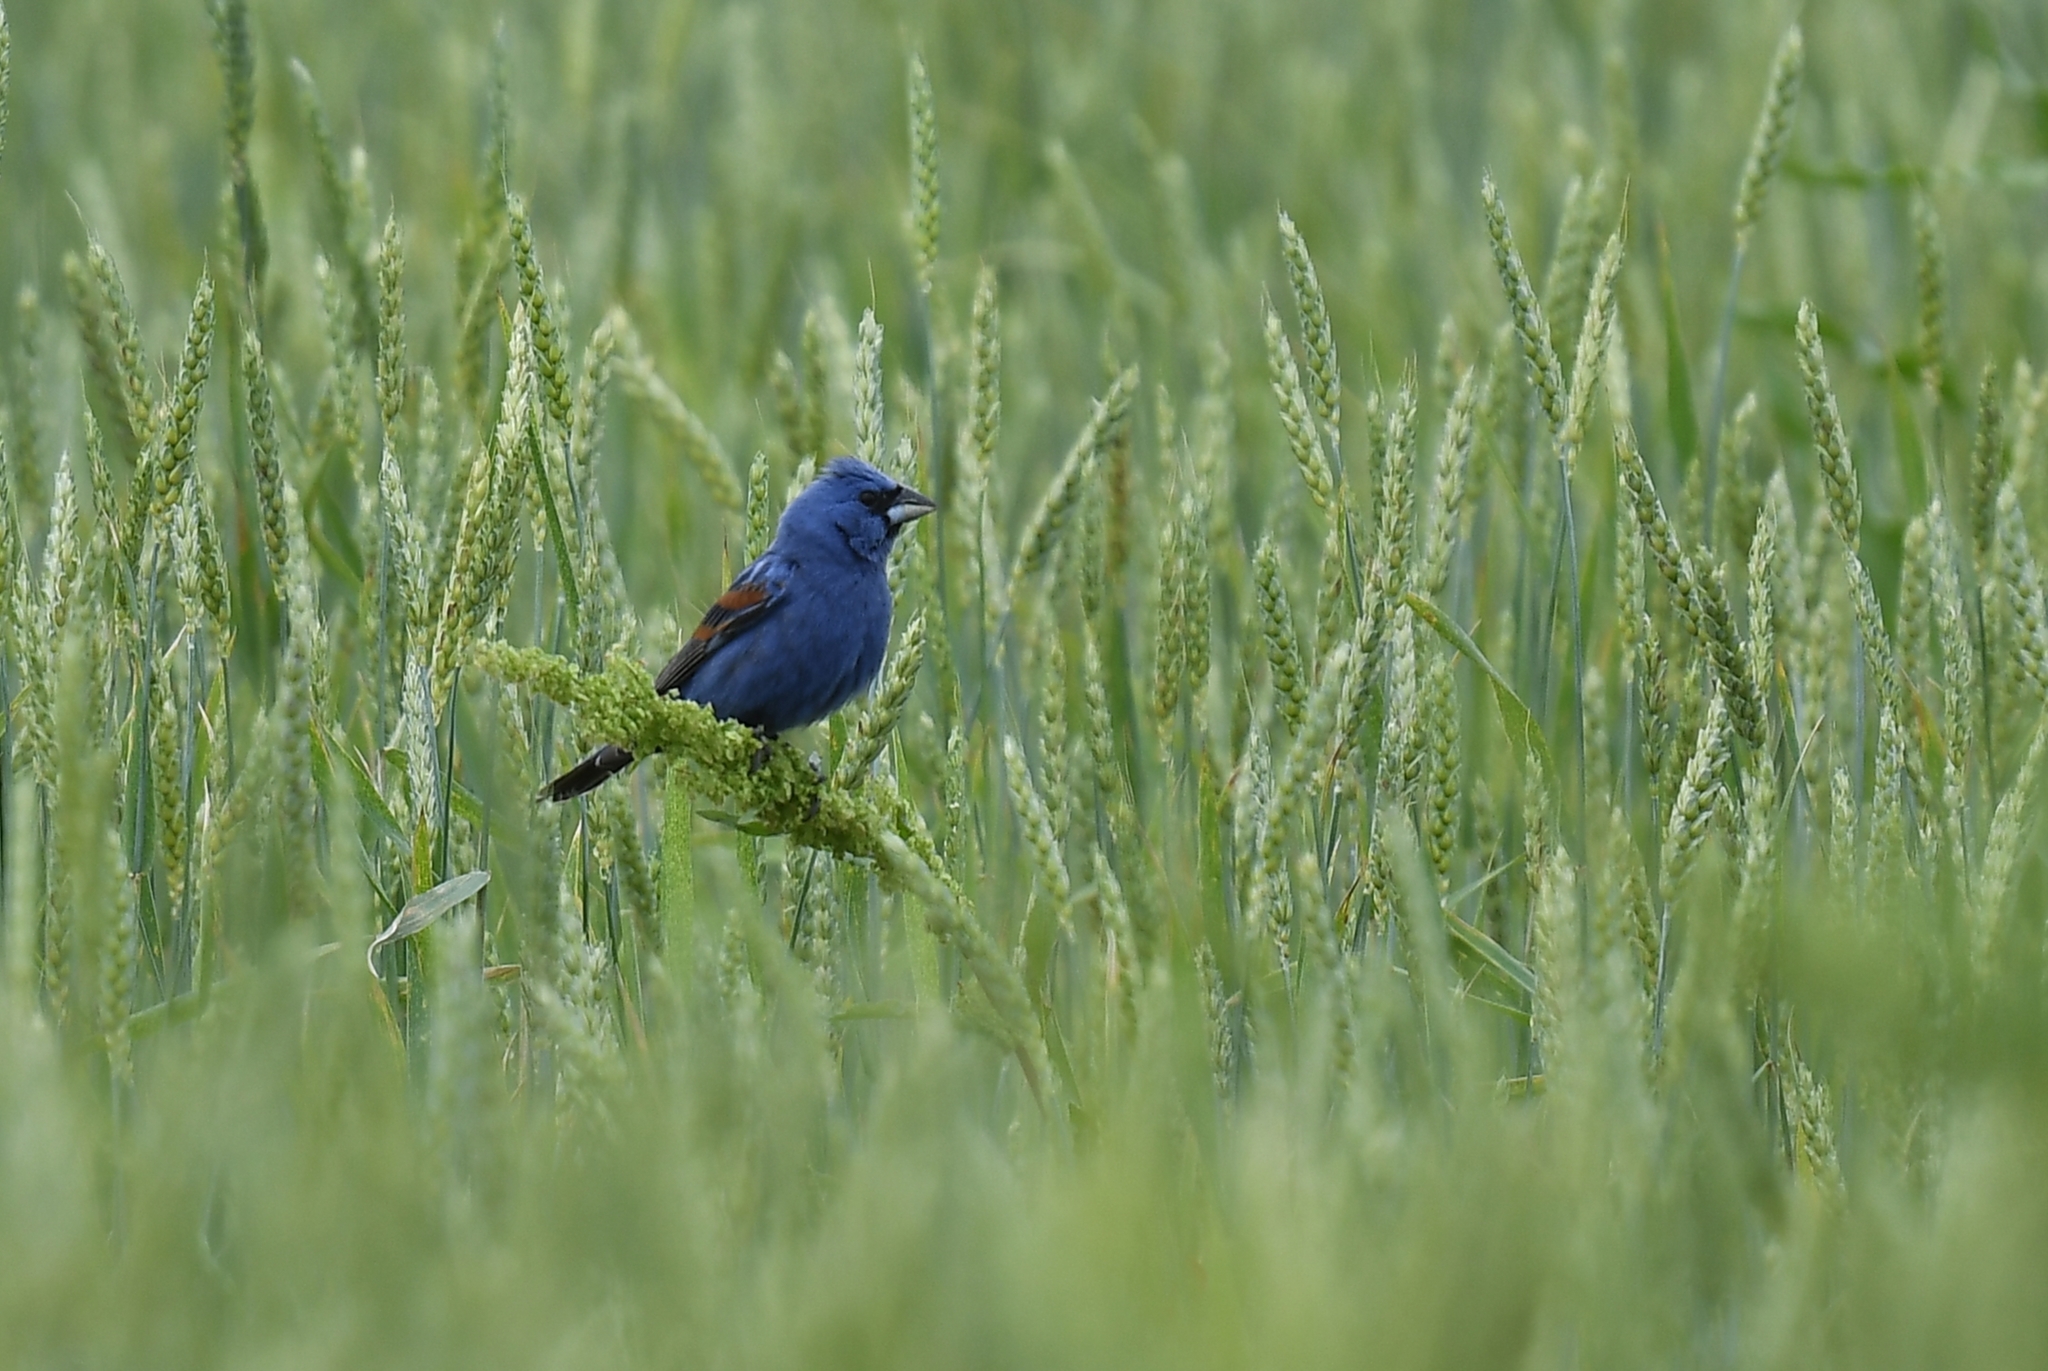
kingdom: Animalia
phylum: Chordata
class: Aves
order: Passeriformes
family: Cardinalidae
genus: Passerina
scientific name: Passerina caerulea
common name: Blue grosbeak
